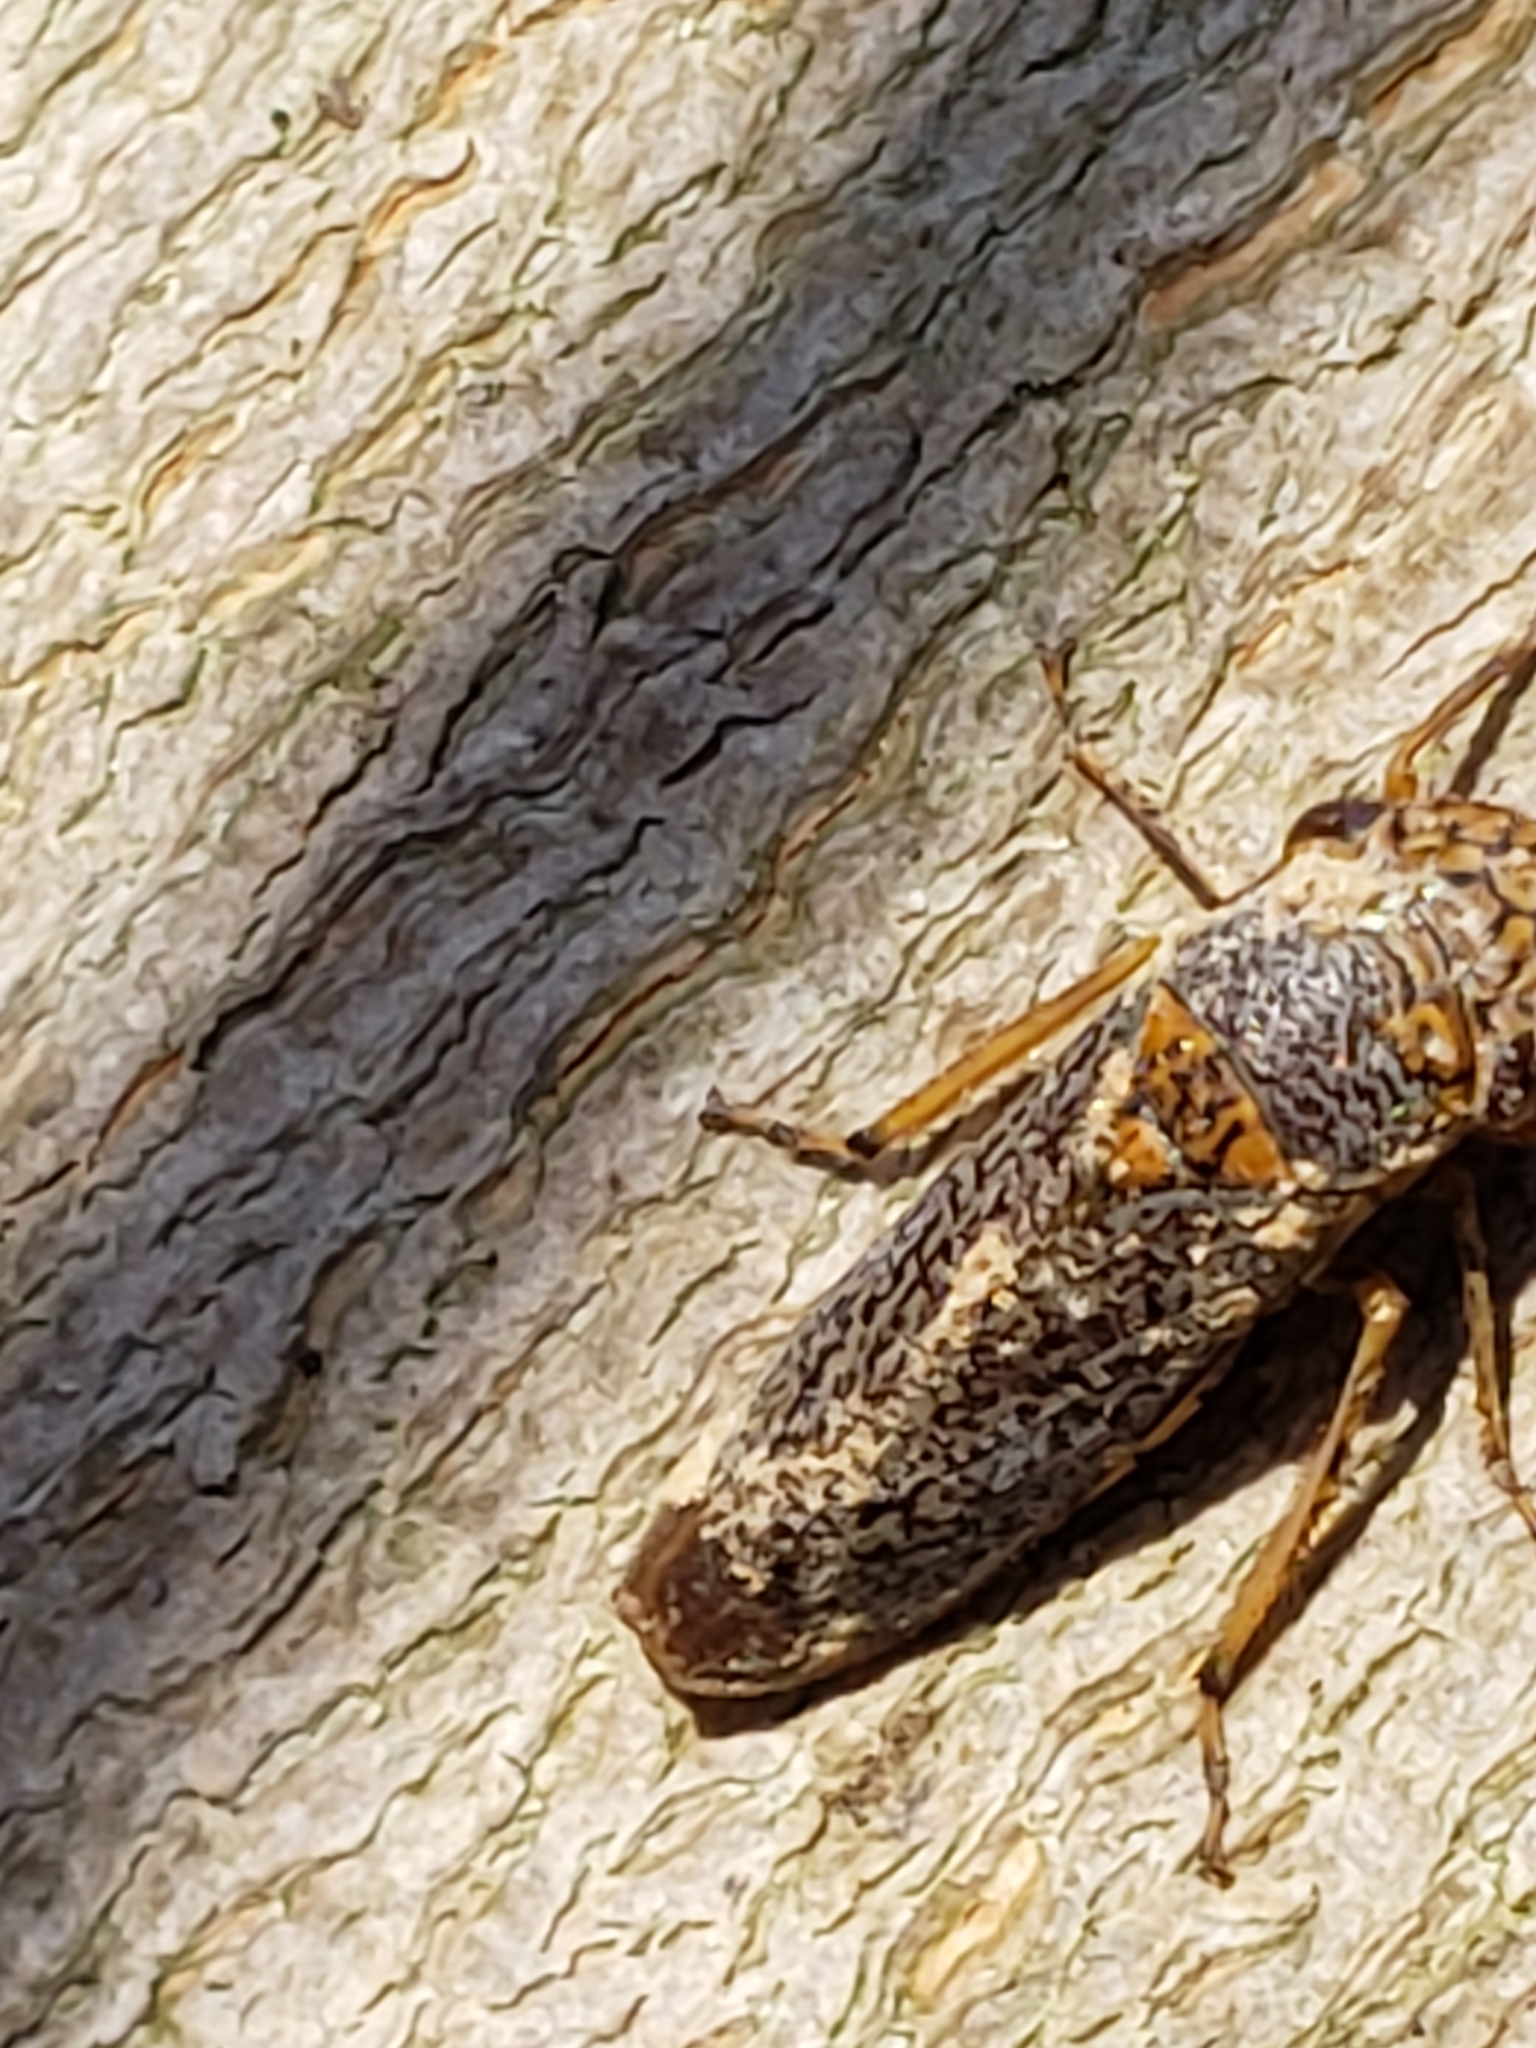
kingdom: Animalia
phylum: Arthropoda
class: Insecta
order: Hemiptera
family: Cicadellidae
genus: Oncometopia
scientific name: Oncometopia orbona
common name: Broad-headed sharpshooter
